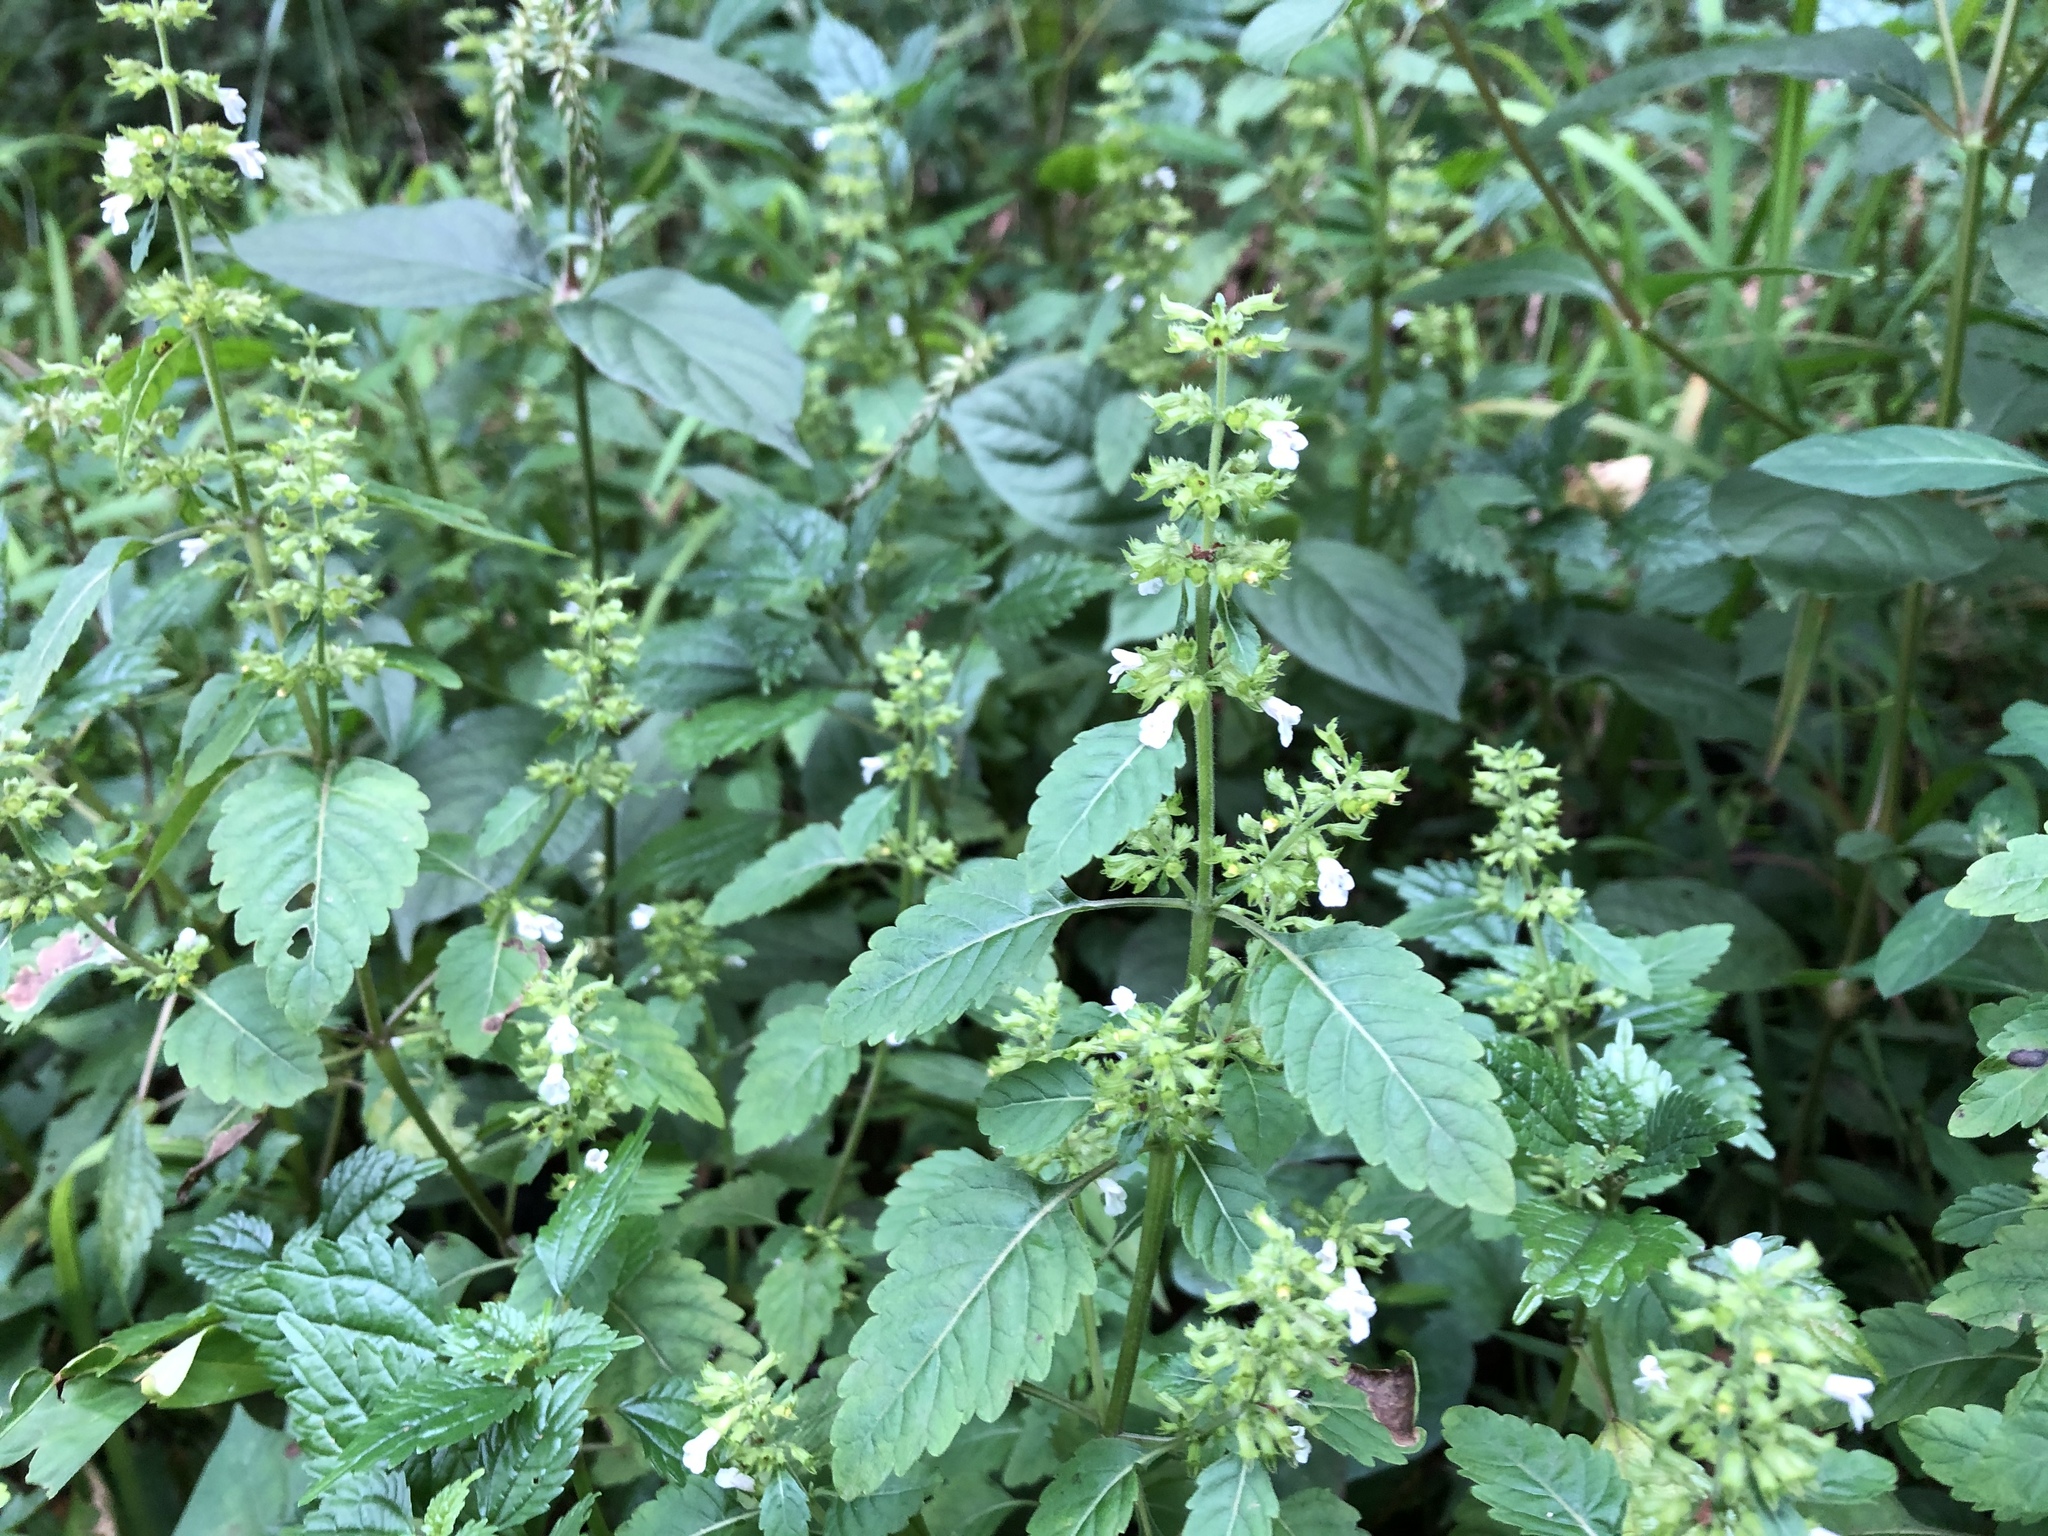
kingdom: Plantae
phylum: Tracheophyta
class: Magnoliopsida
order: Lamiales
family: Lamiaceae
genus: Clinopodium
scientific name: Clinopodium gracile
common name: Slender wild basil
